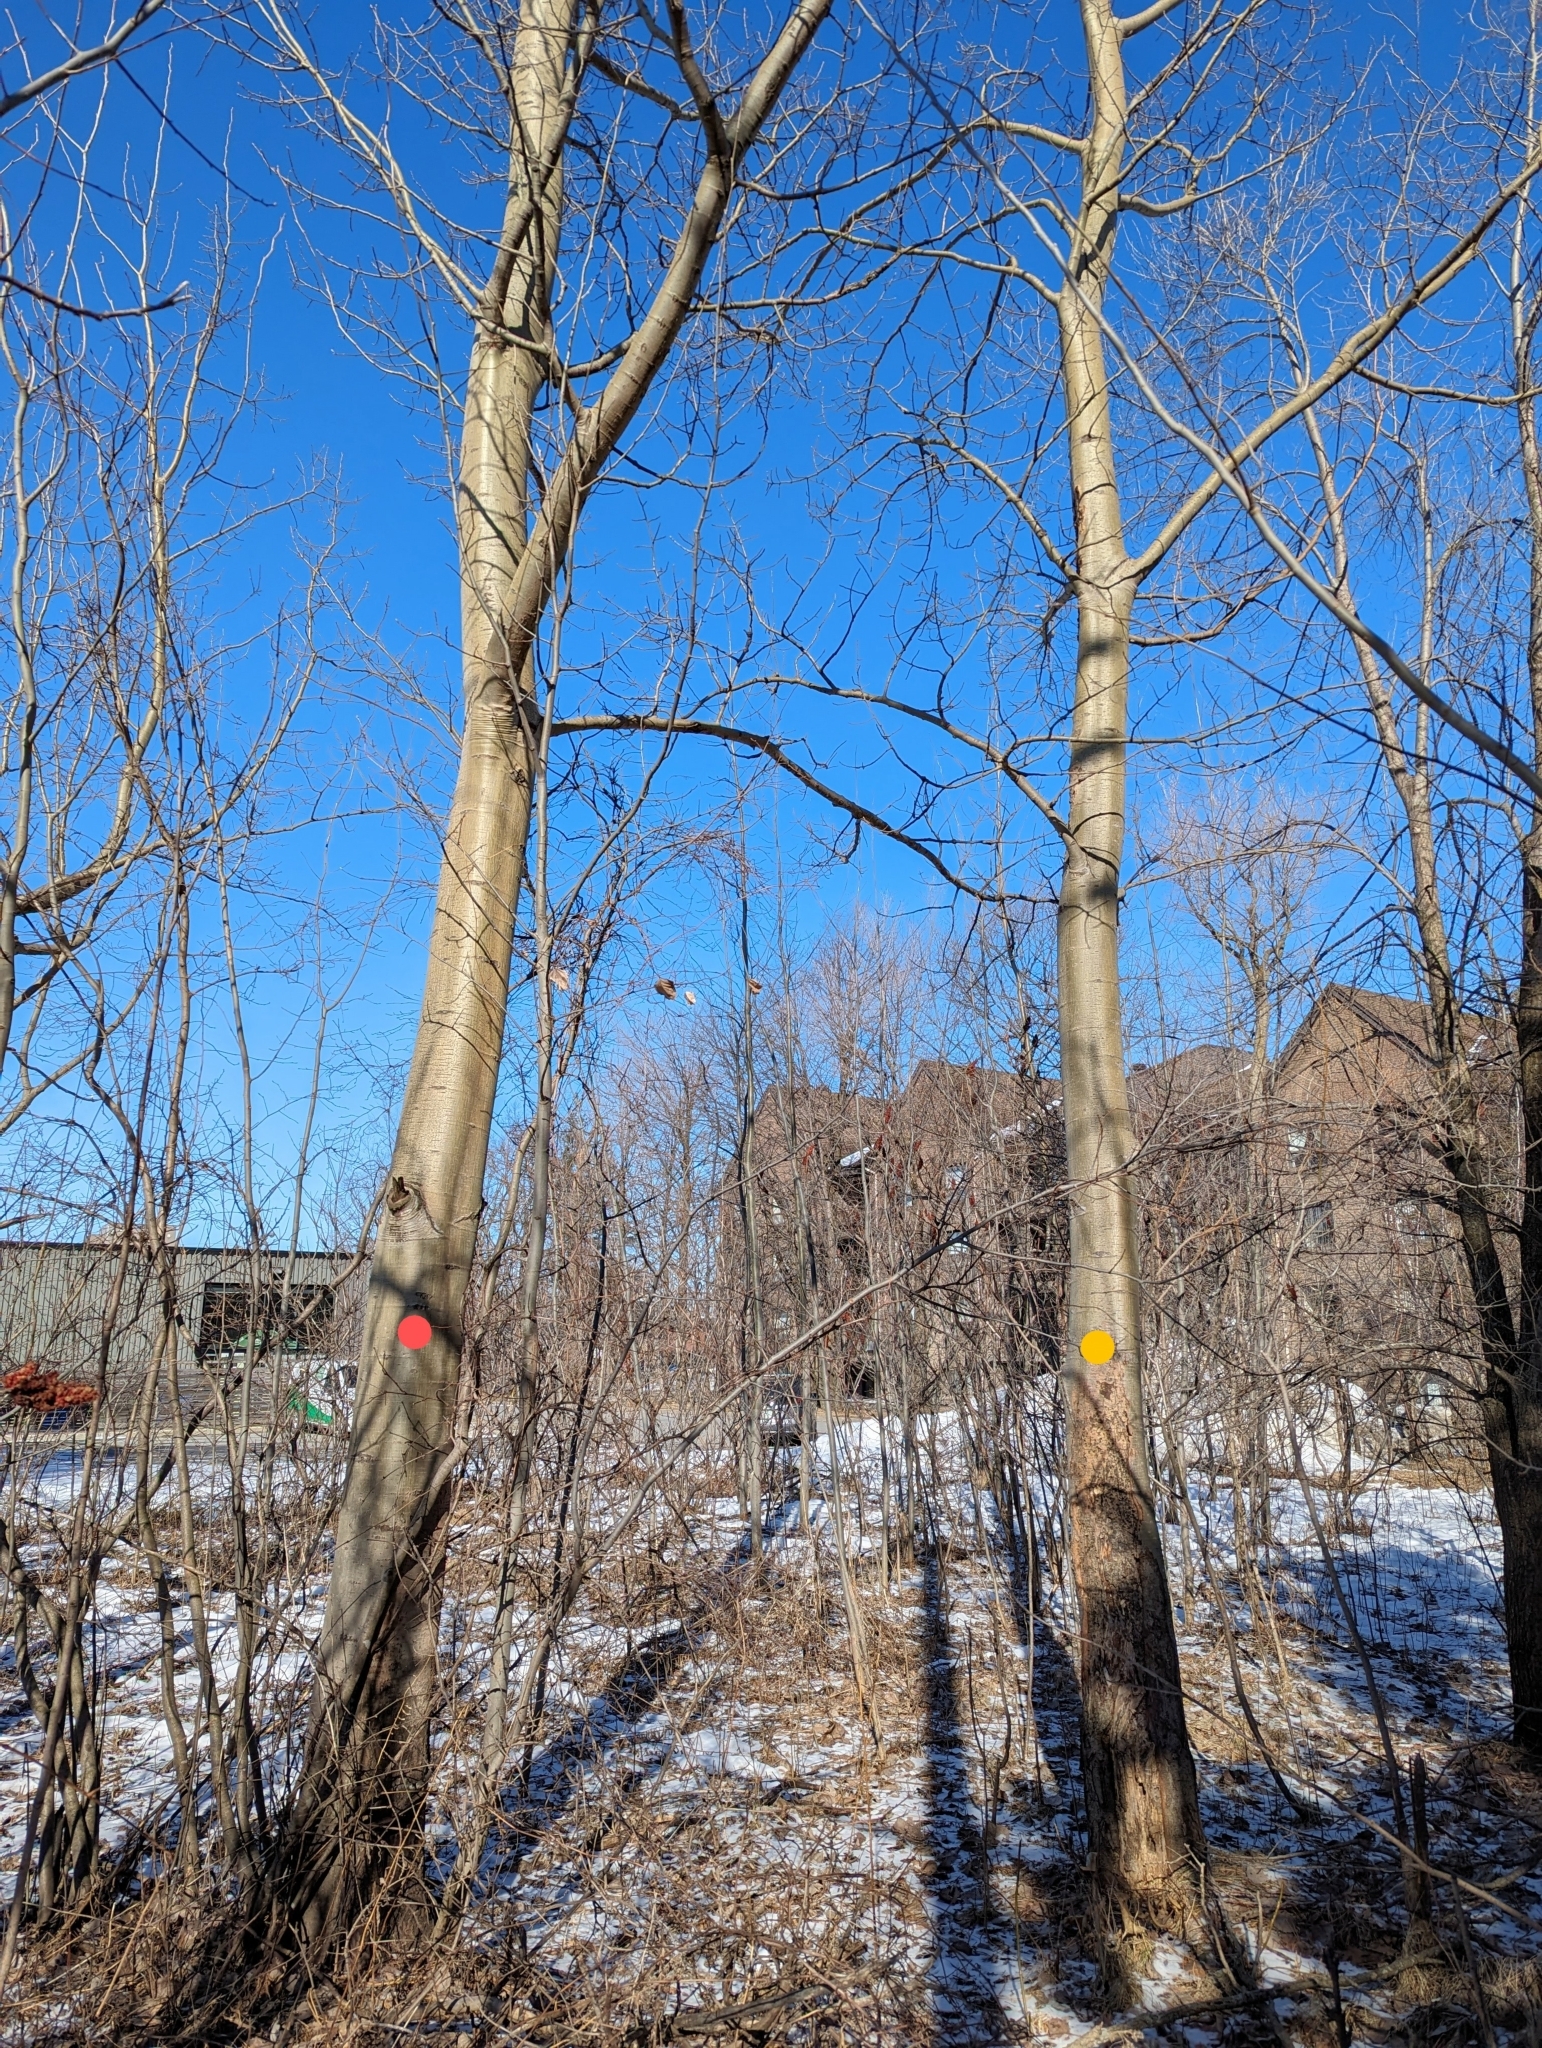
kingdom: Plantae
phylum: Tracheophyta
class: Magnoliopsida
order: Malpighiales
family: Salicaceae
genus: Populus
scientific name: Populus grandidentata
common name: Bigtooth aspen
